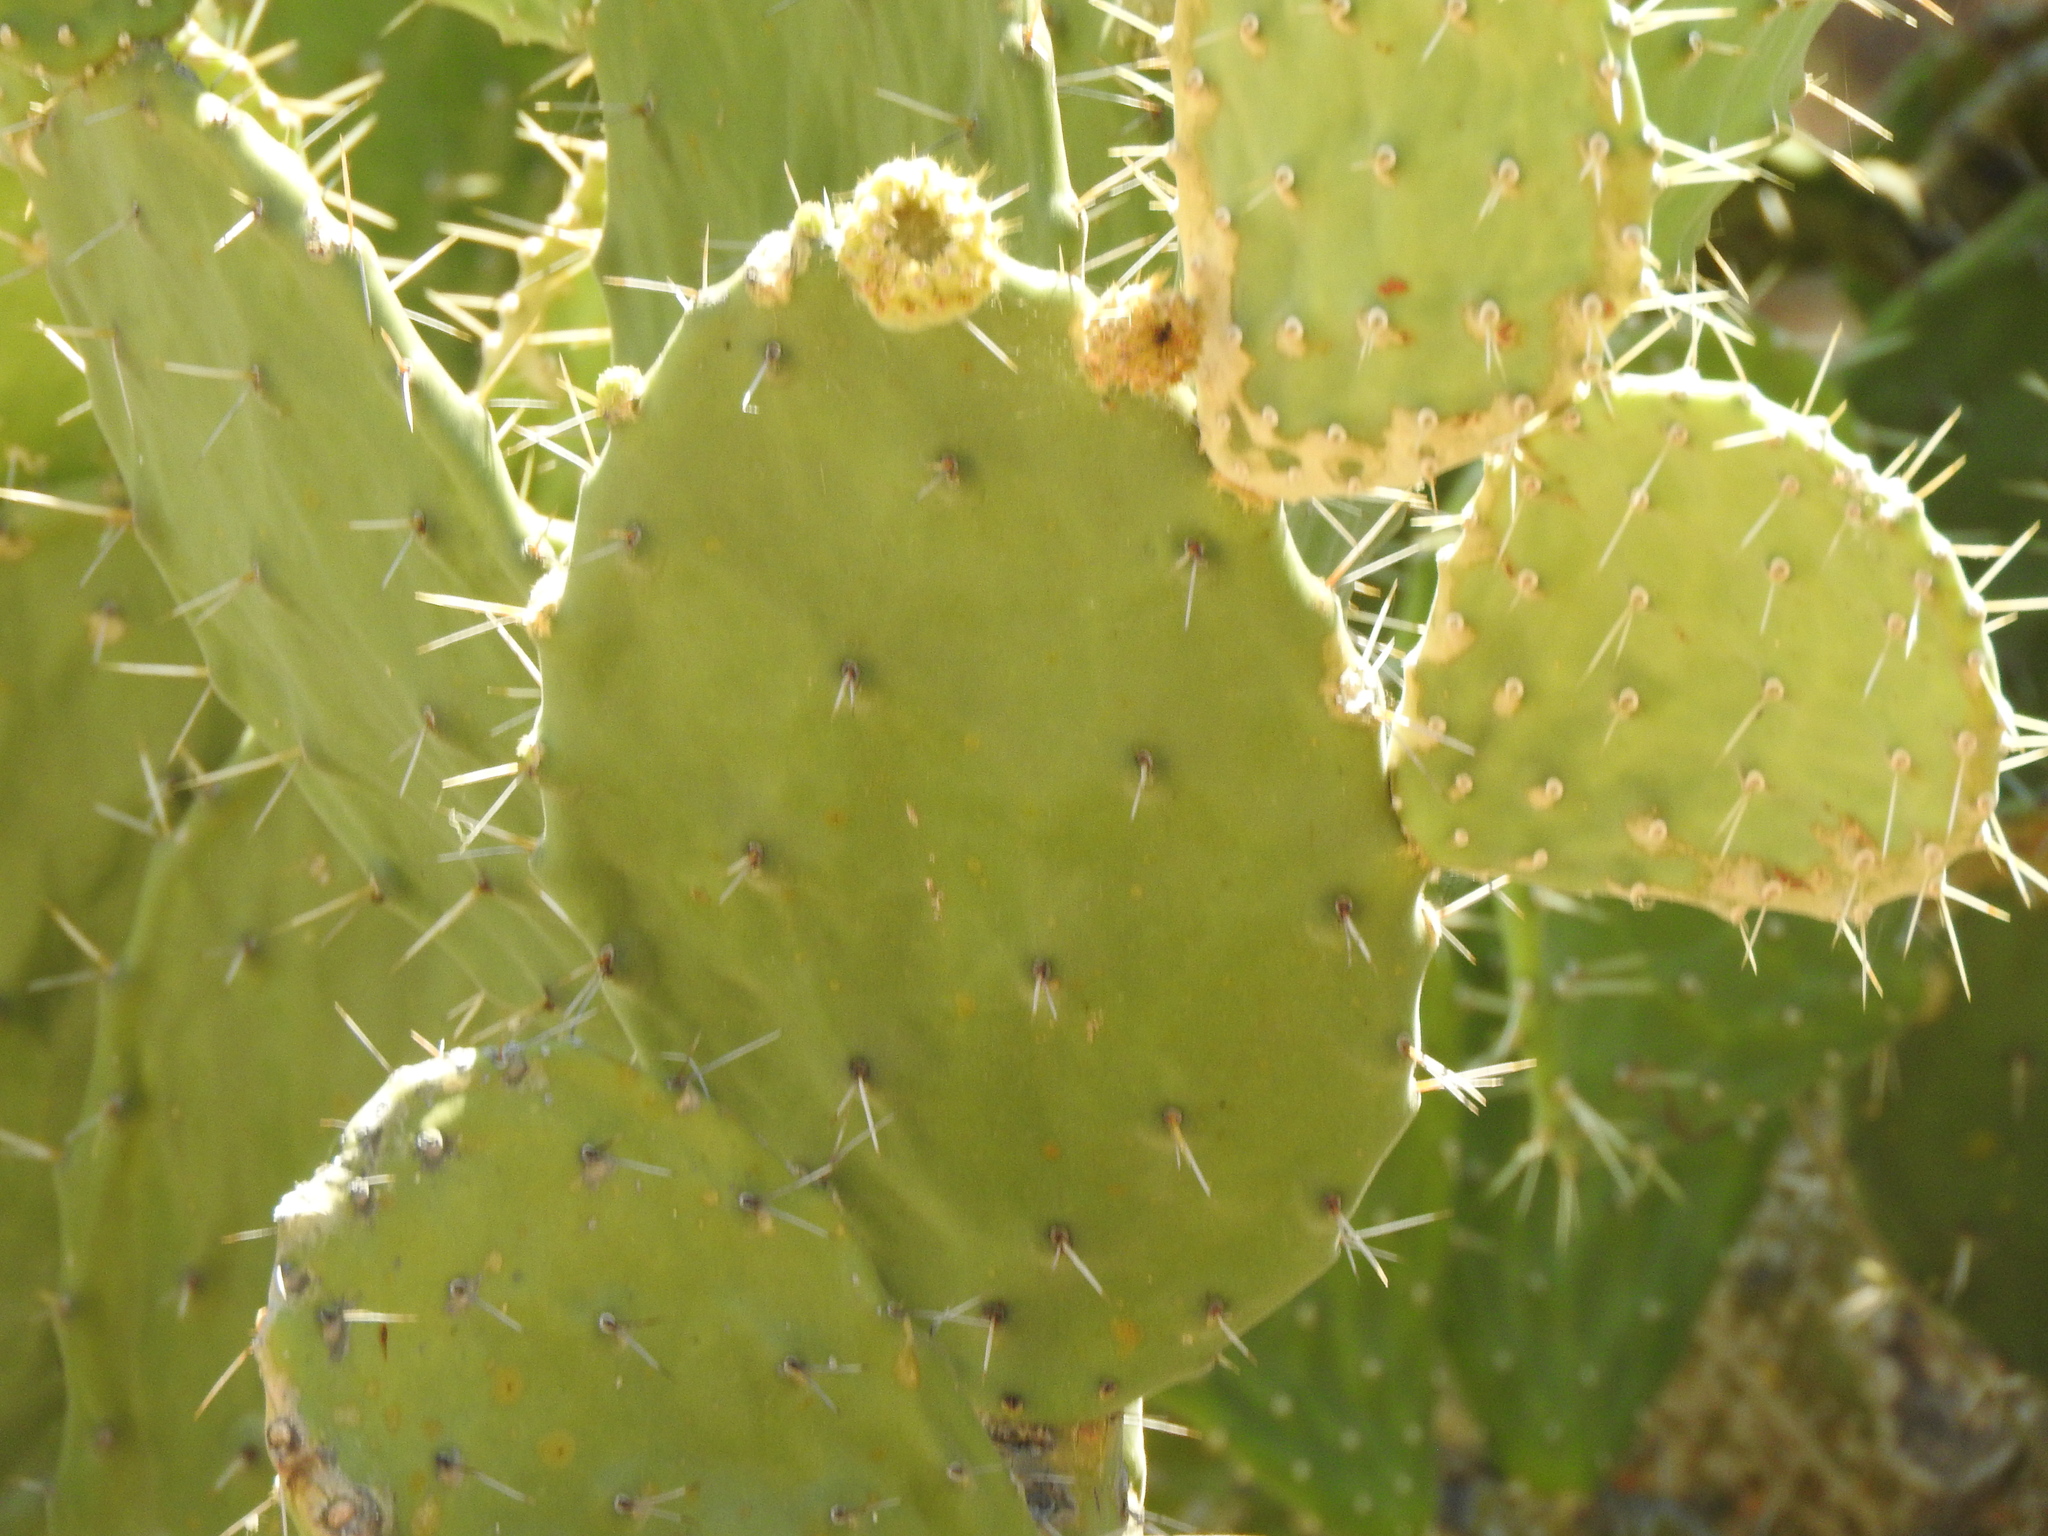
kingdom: Plantae
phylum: Tracheophyta
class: Magnoliopsida
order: Caryophyllales
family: Cactaceae
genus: Opuntia
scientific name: Opuntia tomentosa
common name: Woollyjoint pricklypear
